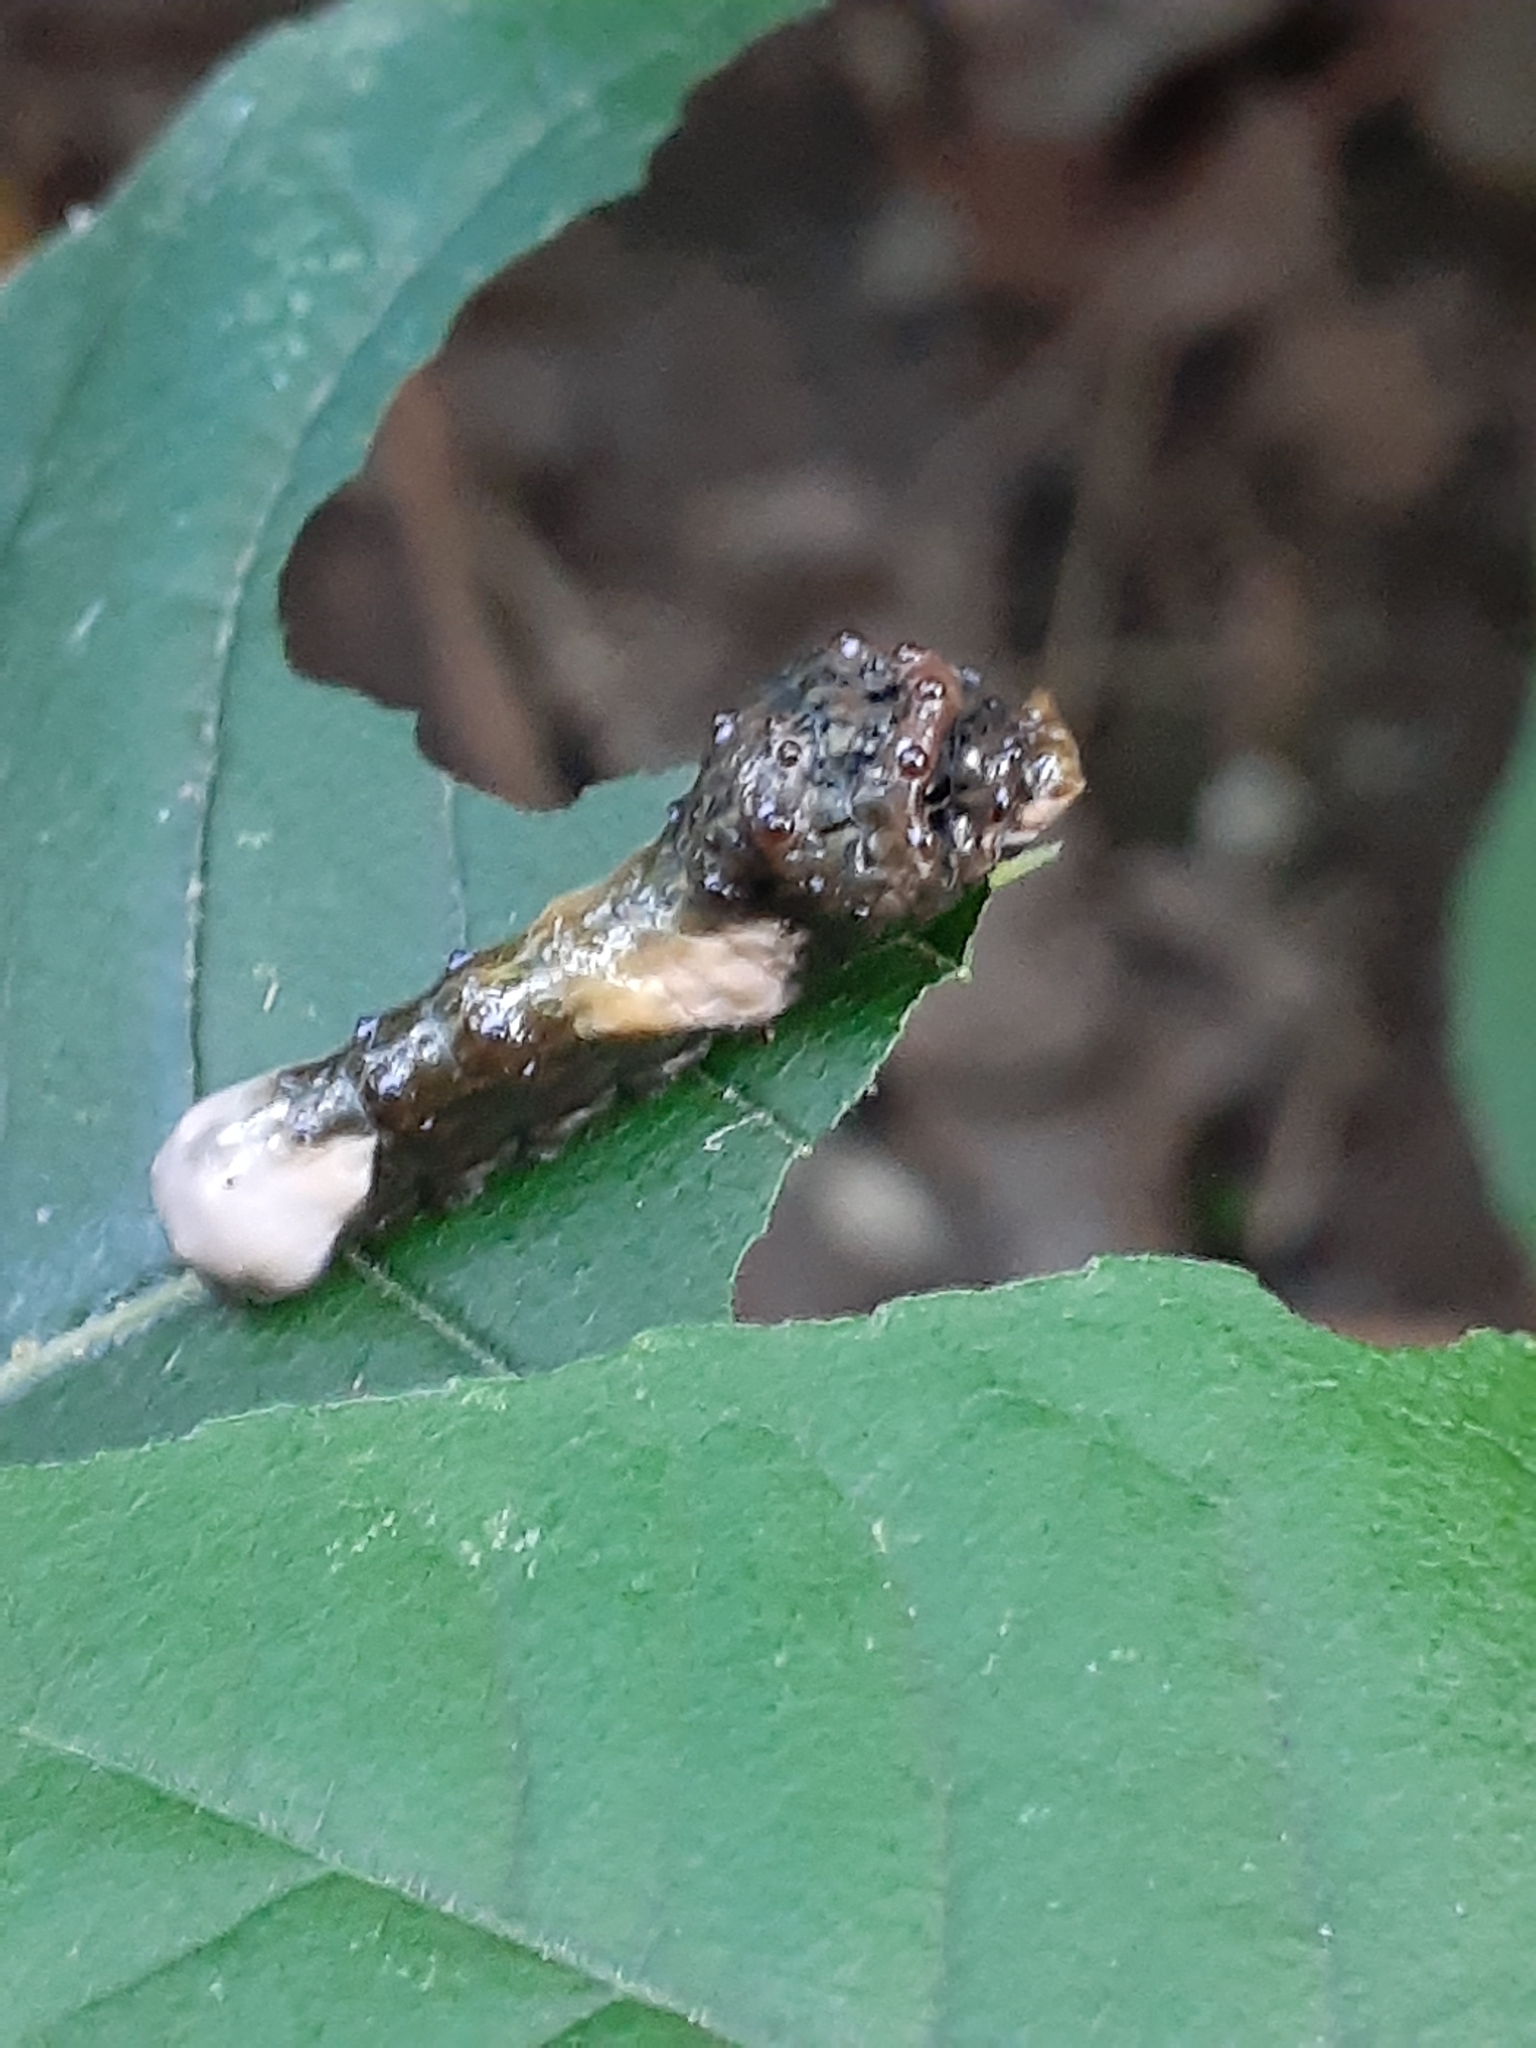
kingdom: Animalia
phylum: Arthropoda
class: Insecta
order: Lepidoptera
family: Papilionidae
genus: Papilio
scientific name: Papilio cresphontes
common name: Giant swallowtail
